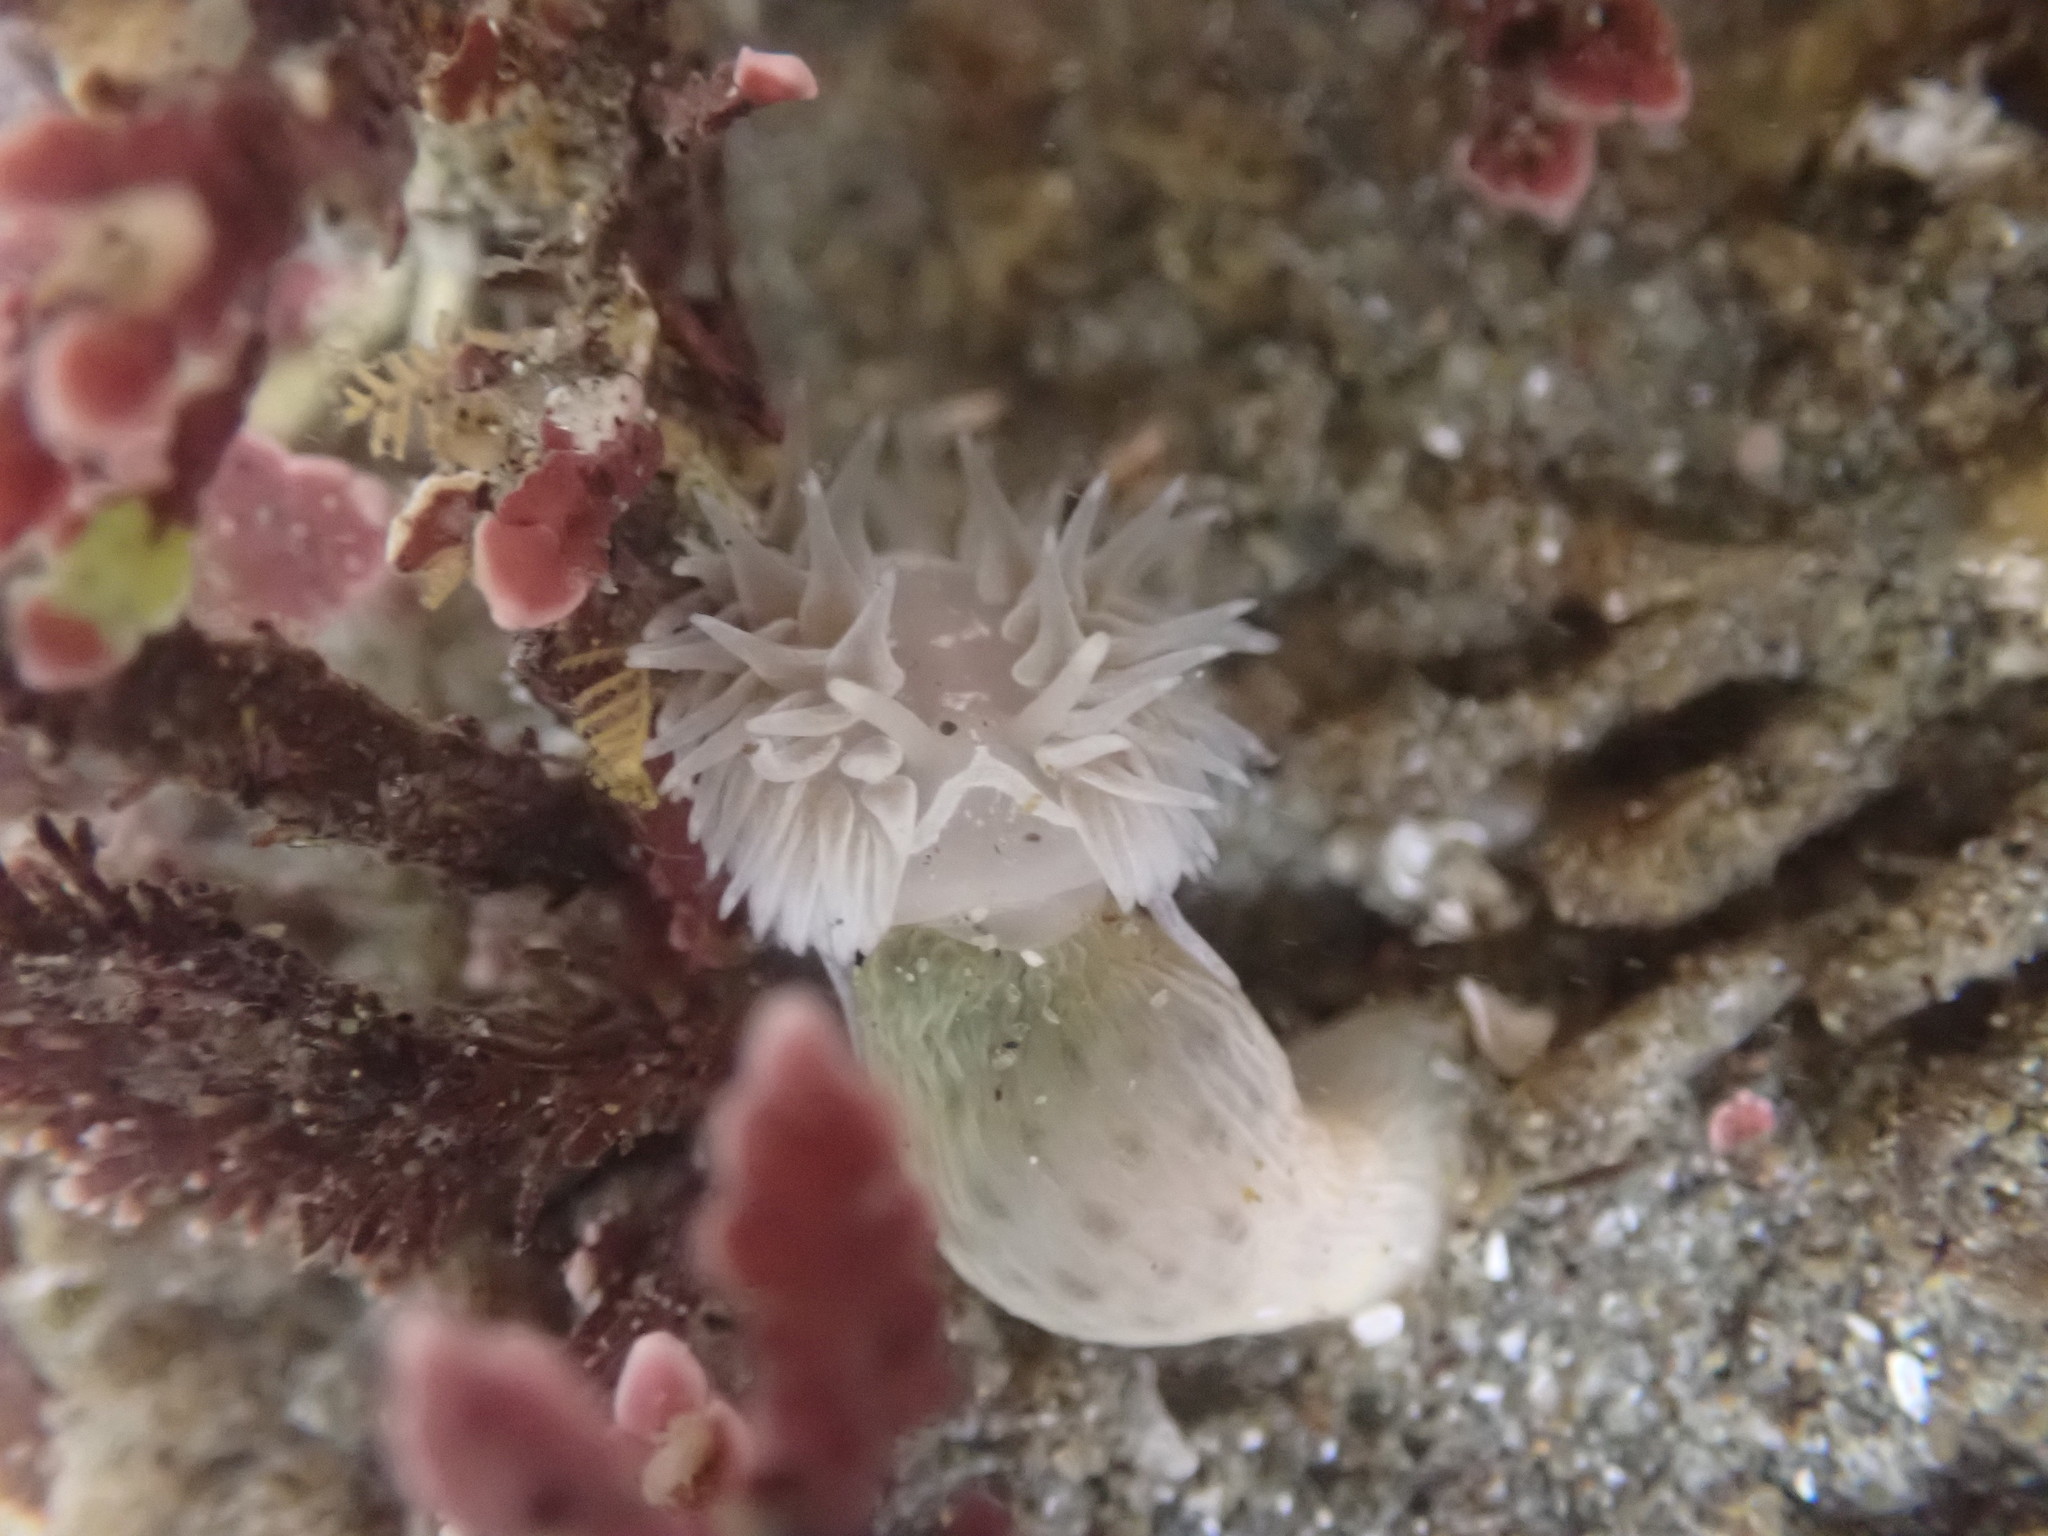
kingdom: Animalia
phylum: Mollusca
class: Gastropoda
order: Nudibranchia
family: Aeolidiidae
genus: Aeolidia
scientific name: Aeolidia loui
